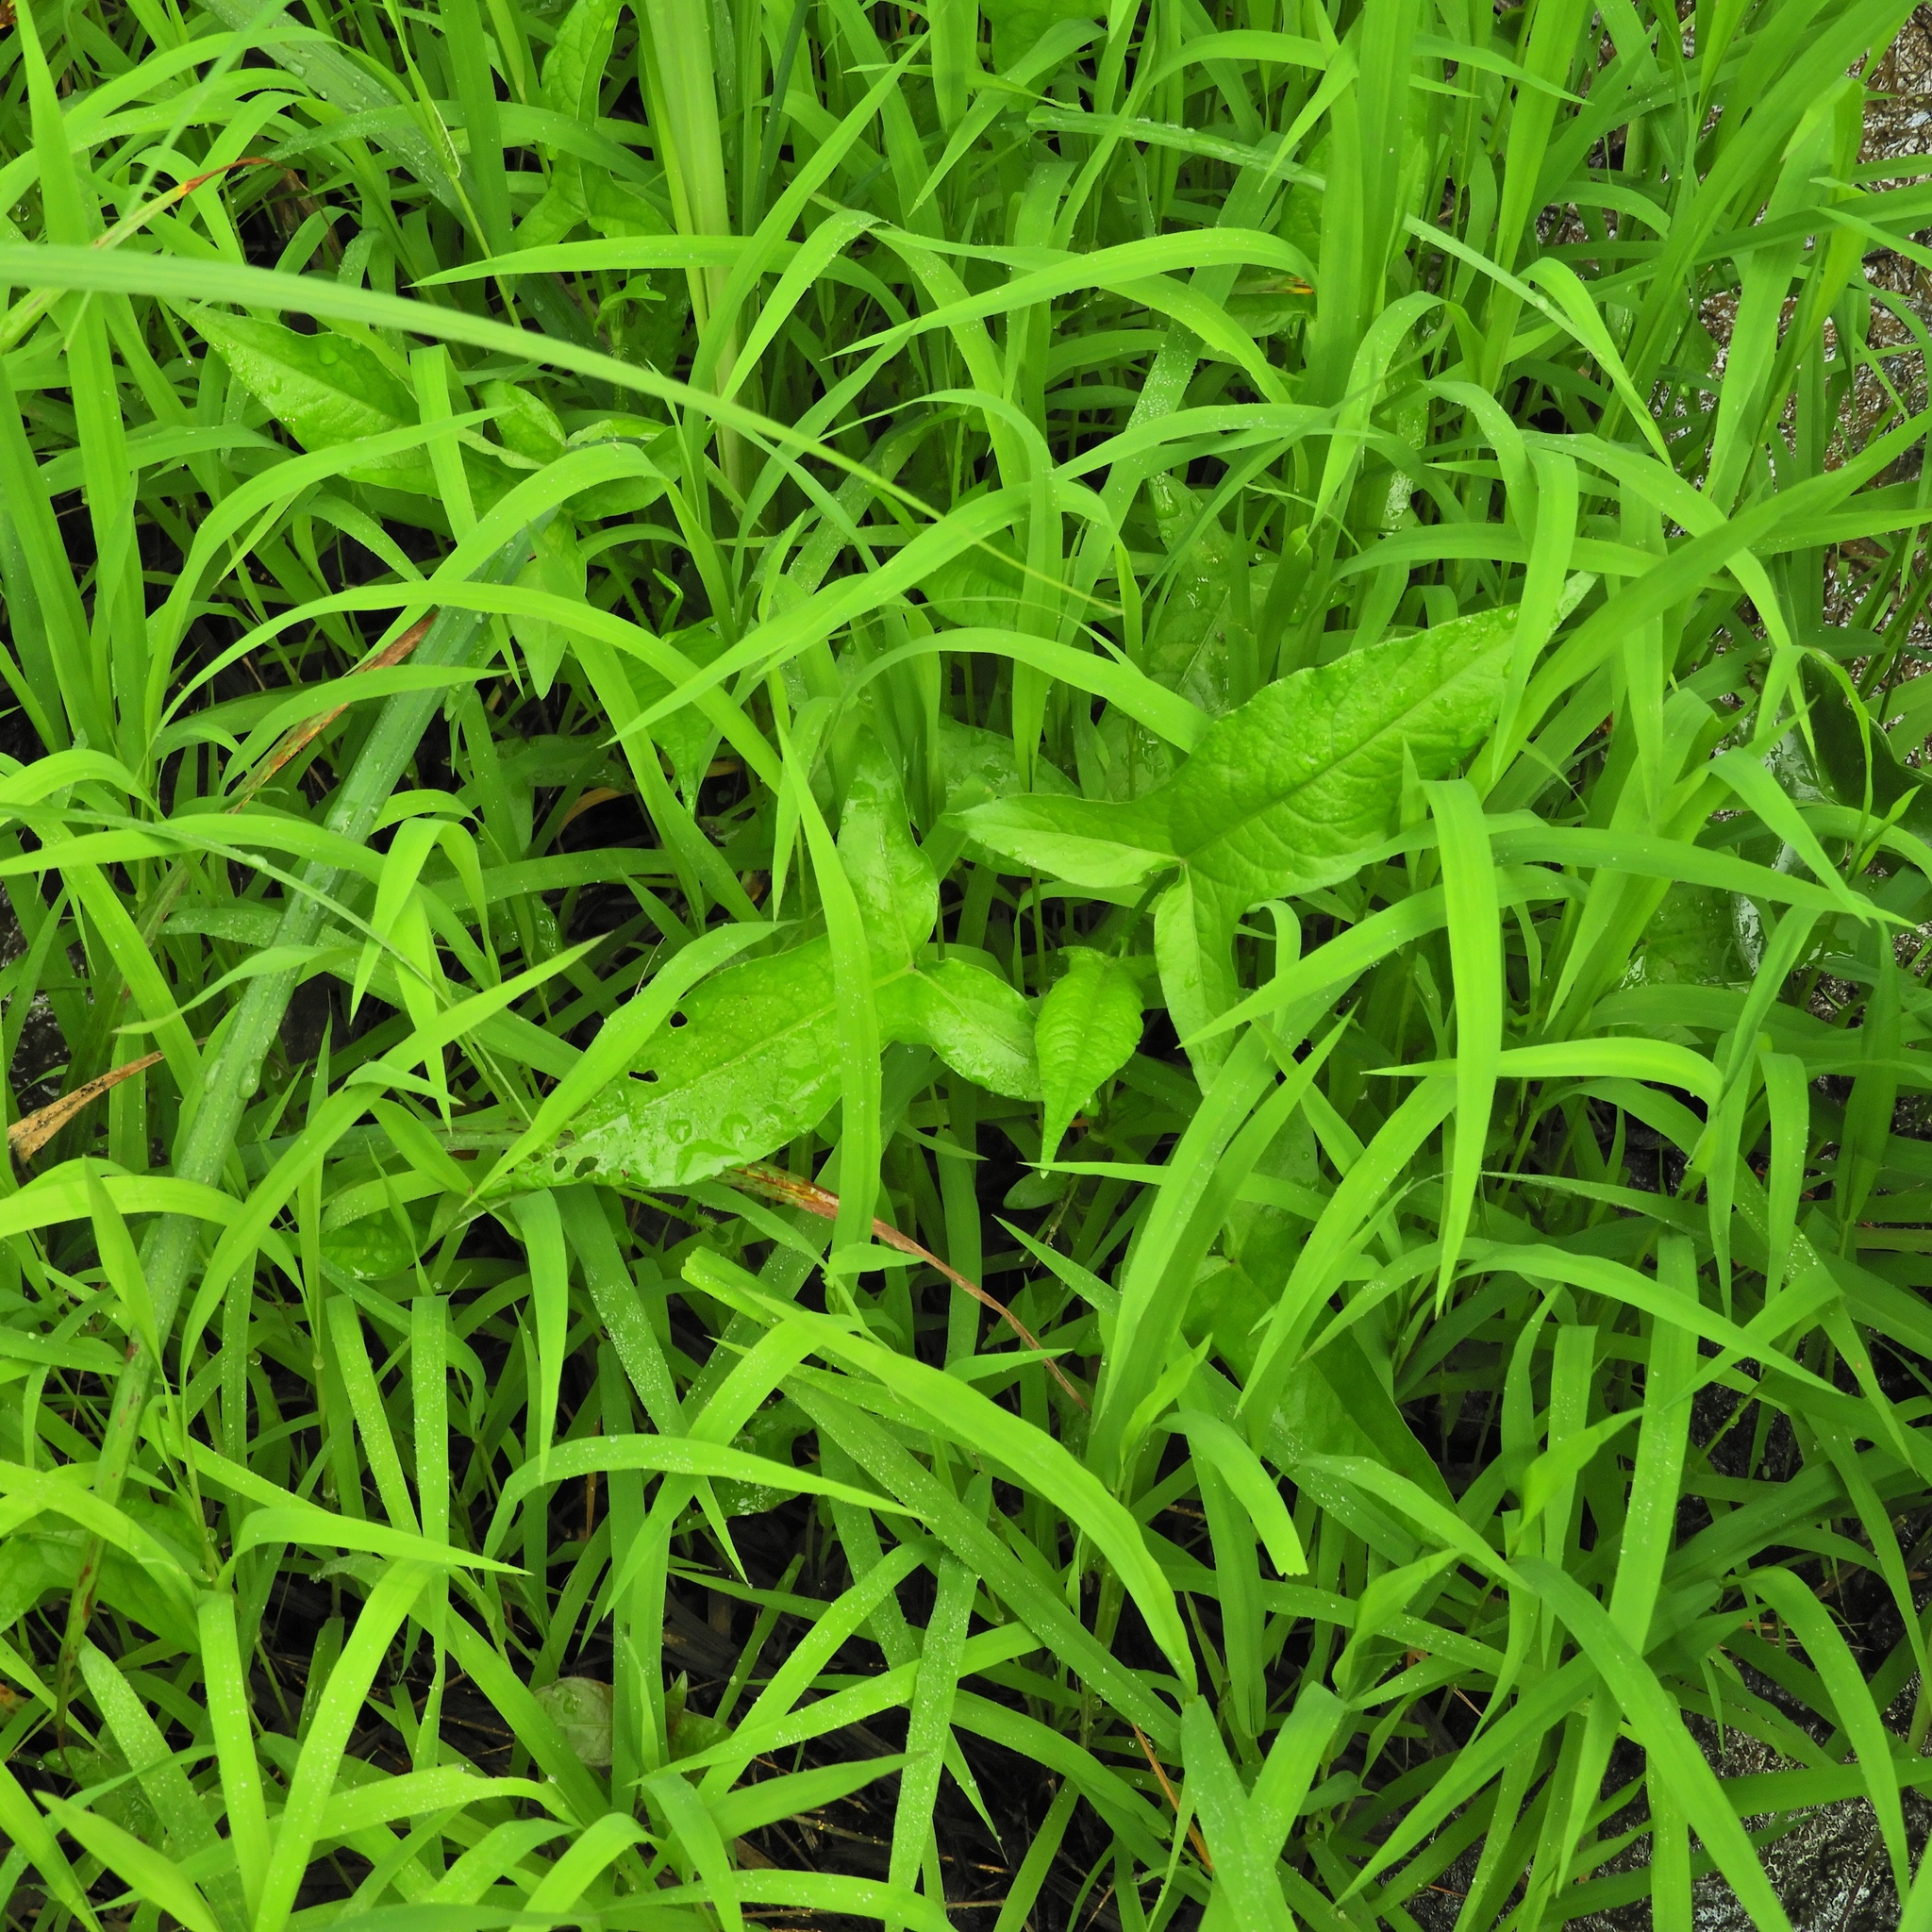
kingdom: Plantae
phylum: Tracheophyta
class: Magnoliopsida
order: Caryophyllales
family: Polygonaceae
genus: Persicaria
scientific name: Persicaria arifolia
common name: Halberd-leaved tear-thumb
